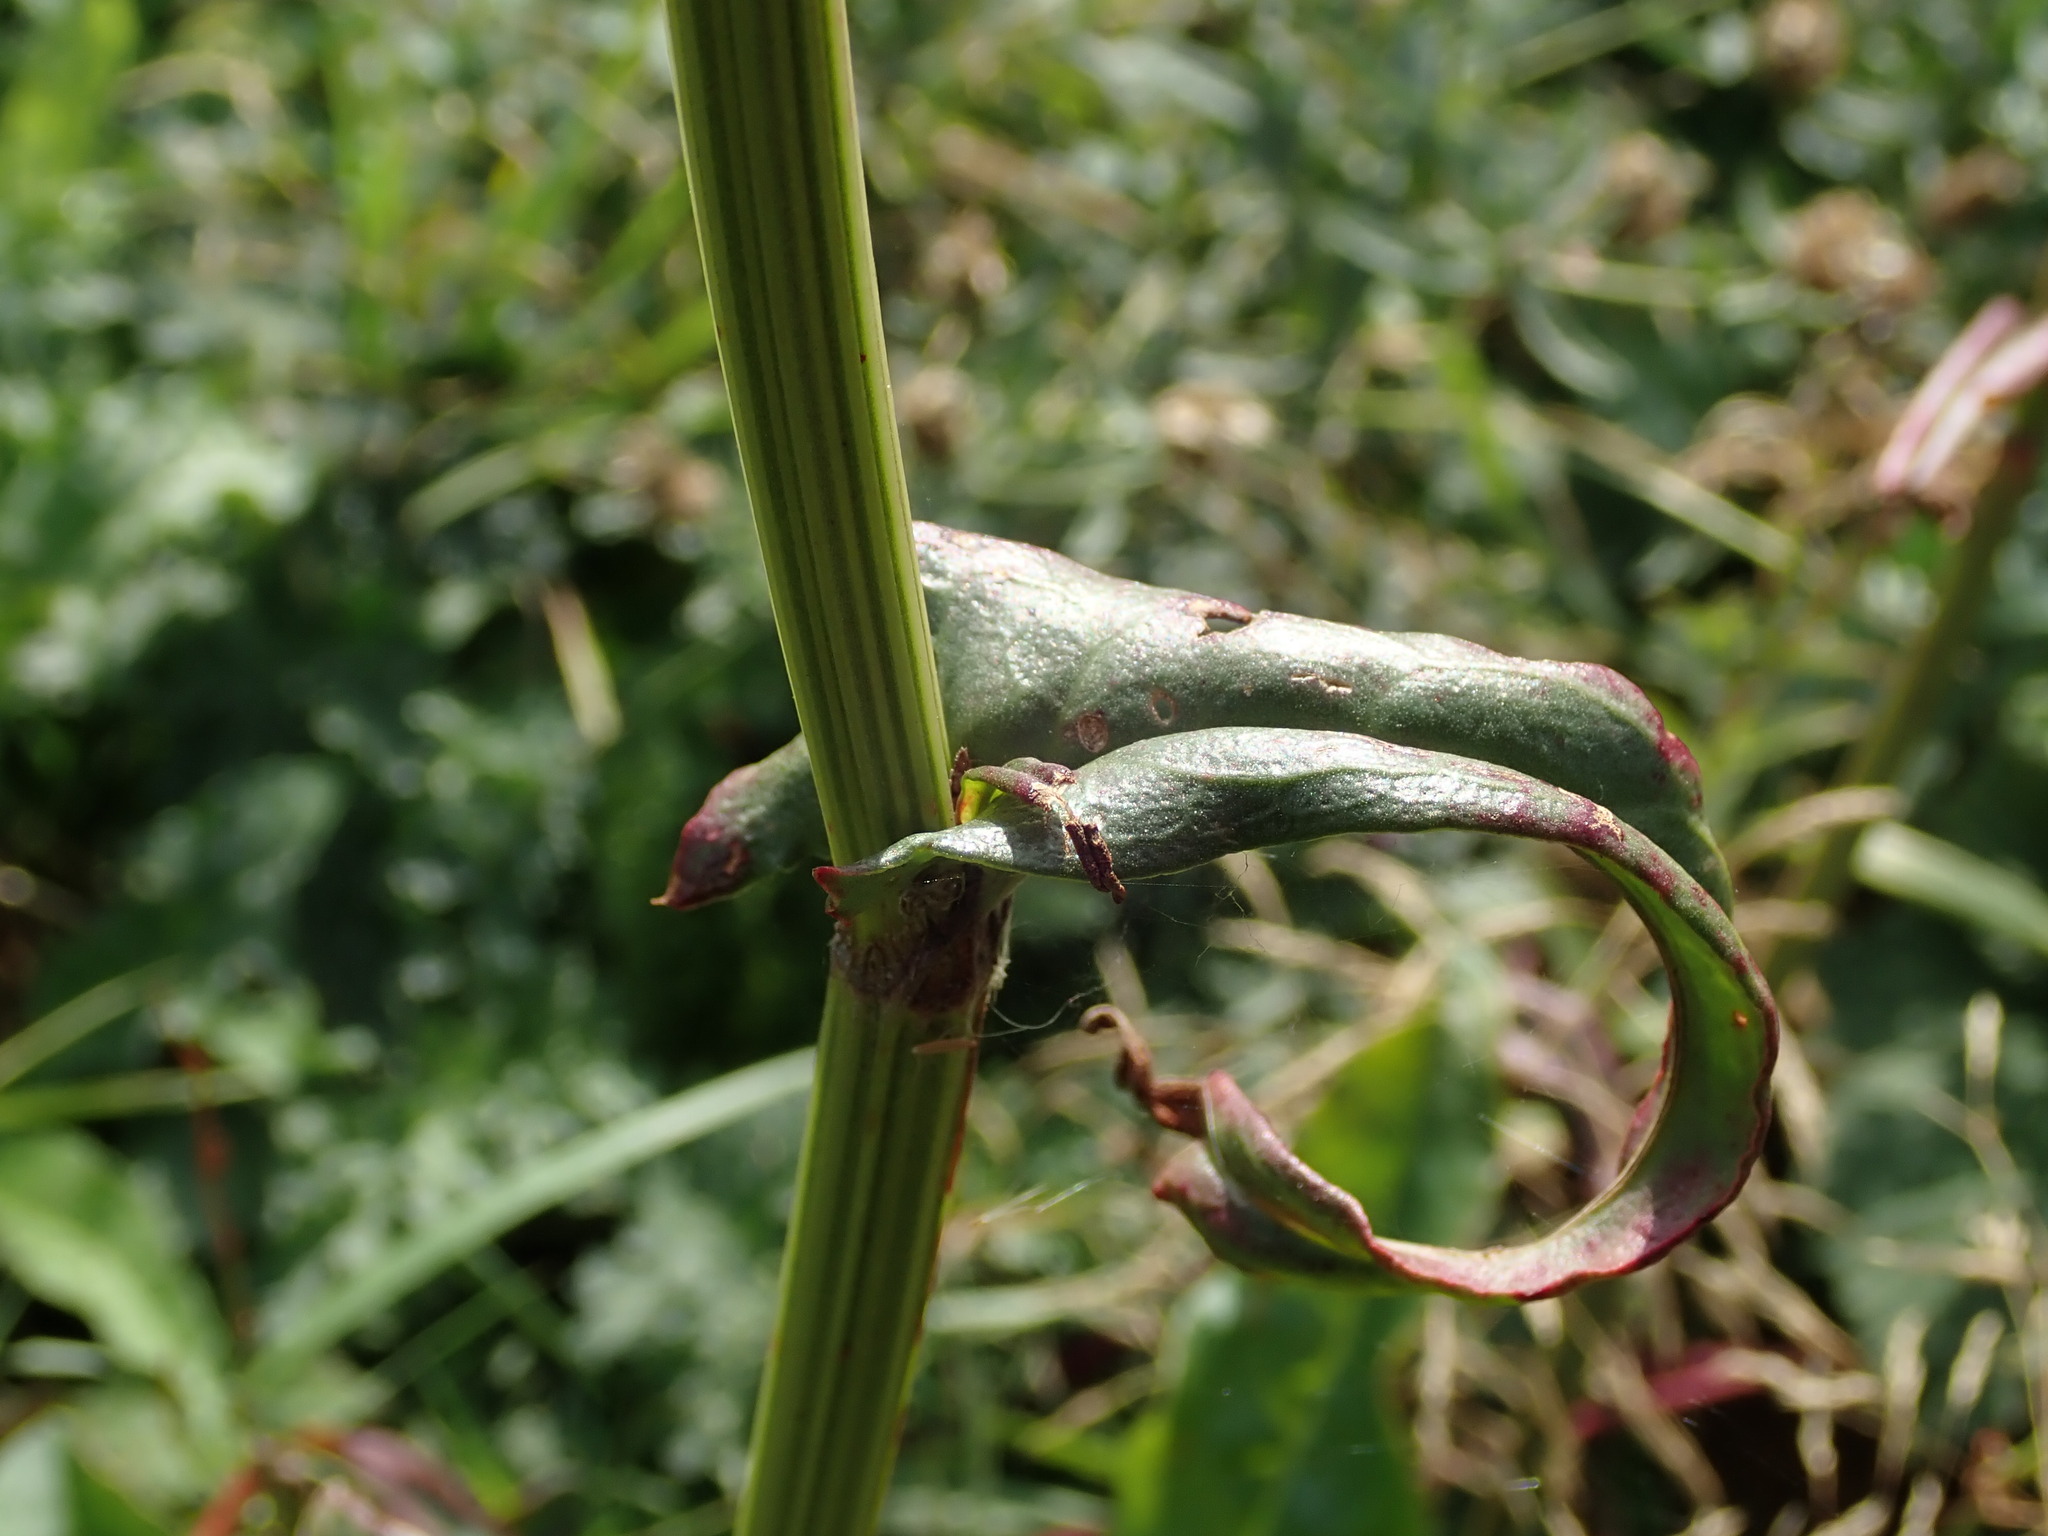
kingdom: Plantae
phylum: Tracheophyta
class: Magnoliopsida
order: Caryophyllales
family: Polygonaceae
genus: Rumex
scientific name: Rumex acetosa
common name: Garden sorrel
